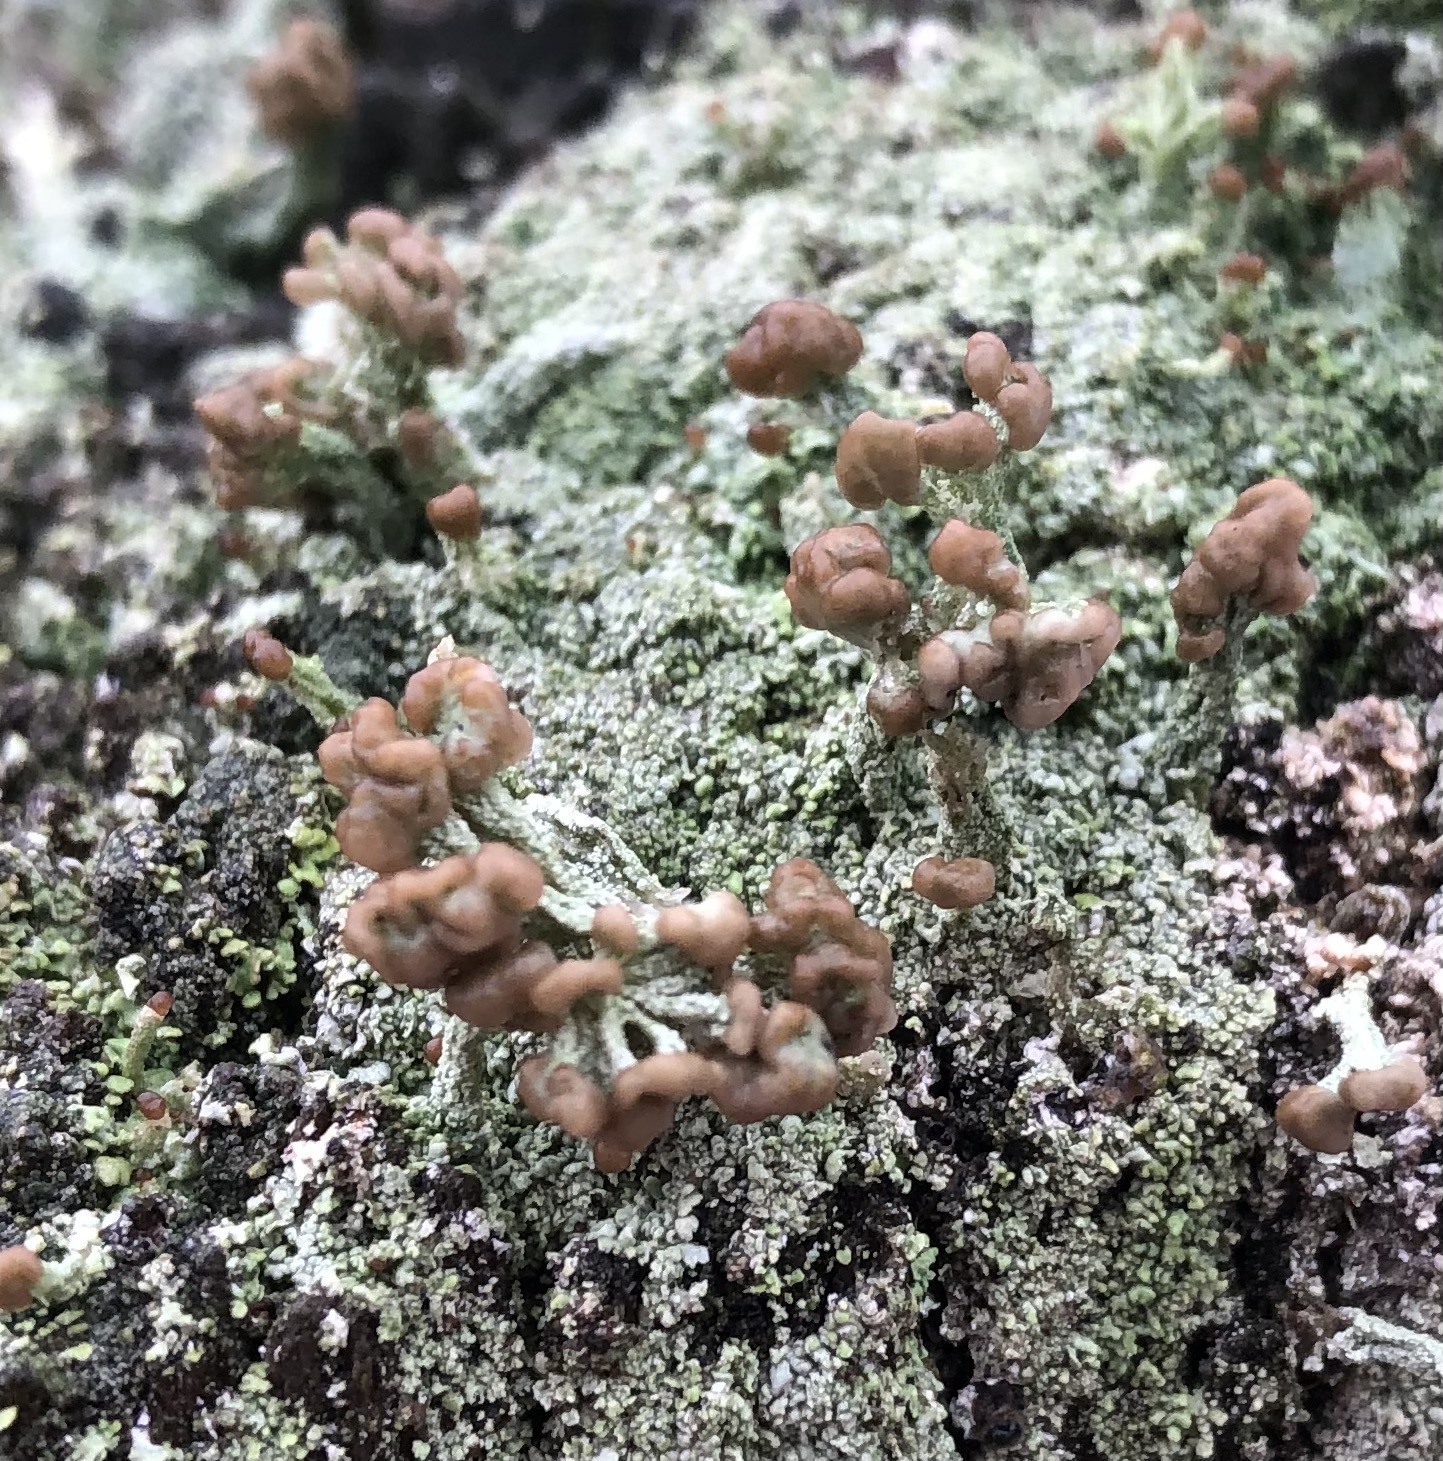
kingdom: Fungi
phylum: Ascomycota
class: Lecanoromycetes
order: Lecanorales
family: Cladoniaceae
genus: Cladonia
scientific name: Cladonia peziziformis
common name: Cup lichen
